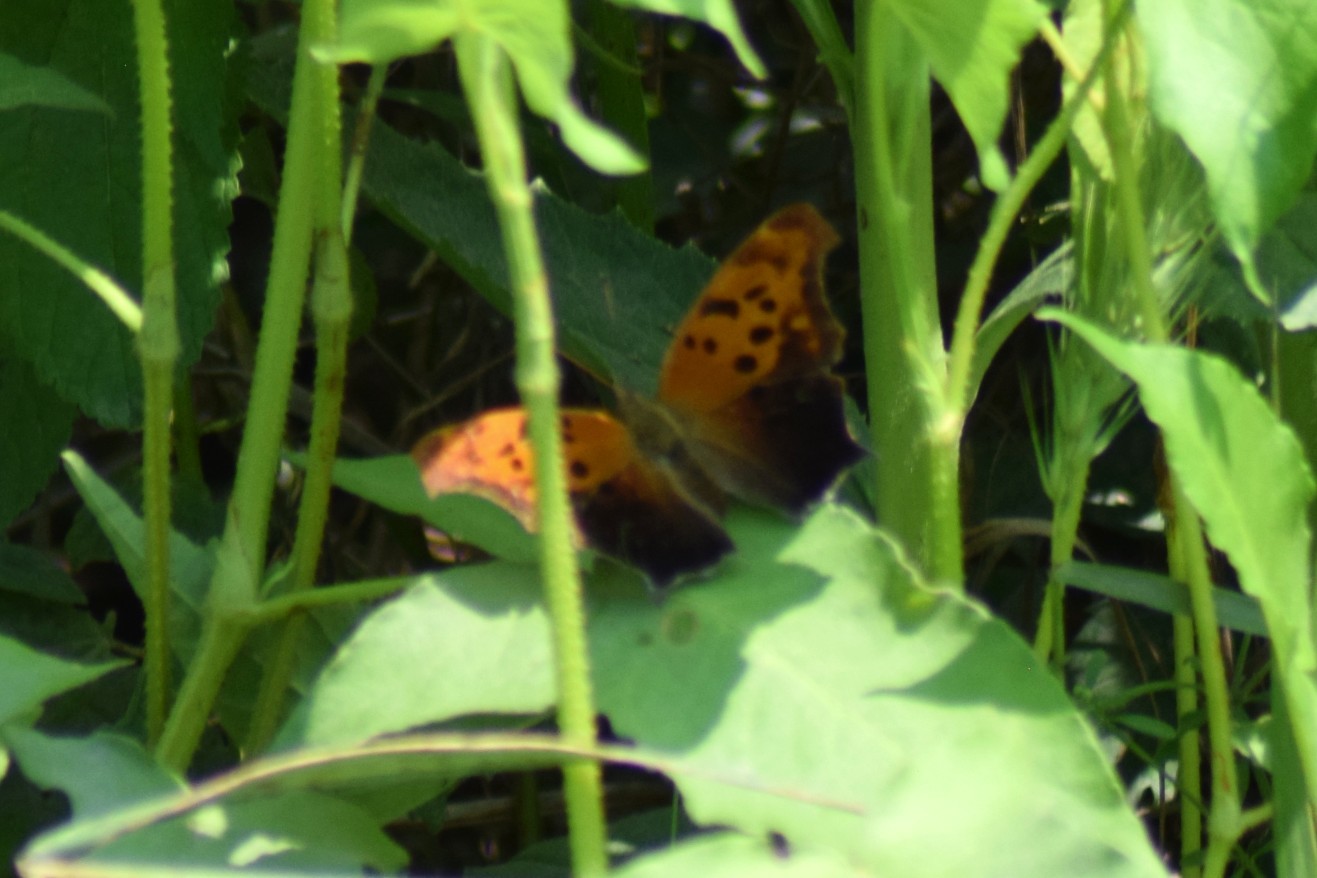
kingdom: Animalia
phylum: Arthropoda
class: Insecta
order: Lepidoptera
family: Nymphalidae
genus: Polygonia
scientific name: Polygonia interrogationis
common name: Question mark
